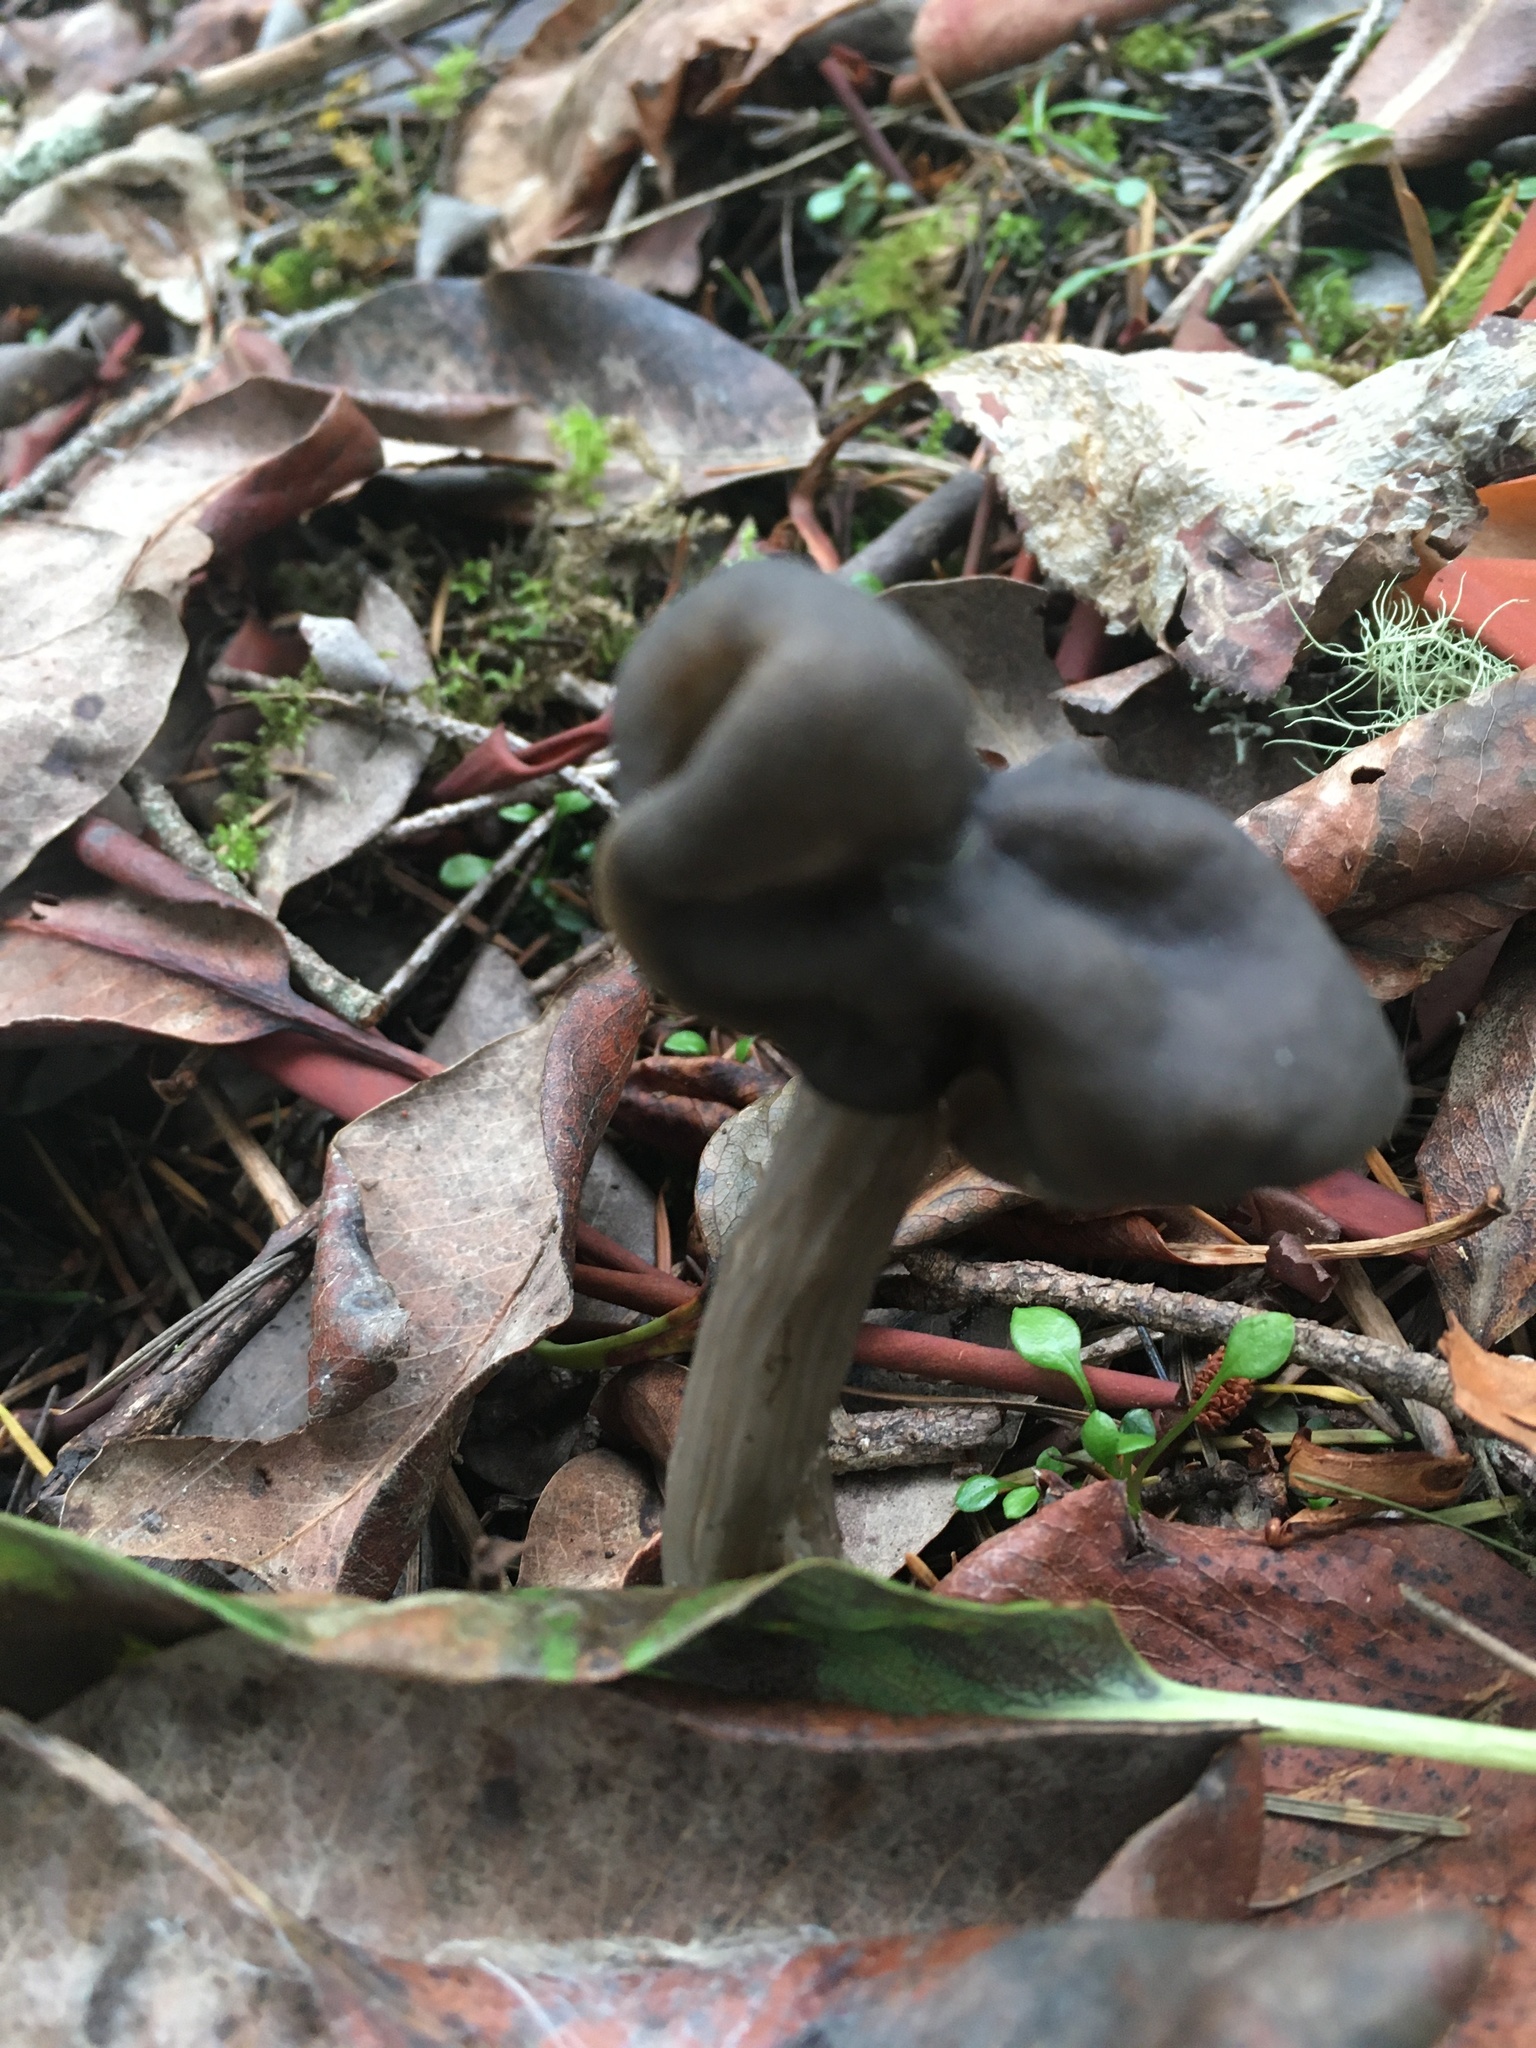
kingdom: Fungi
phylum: Ascomycota
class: Pezizomycetes
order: Pezizales
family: Helvellaceae
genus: Helvella
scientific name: Helvella vespertina
